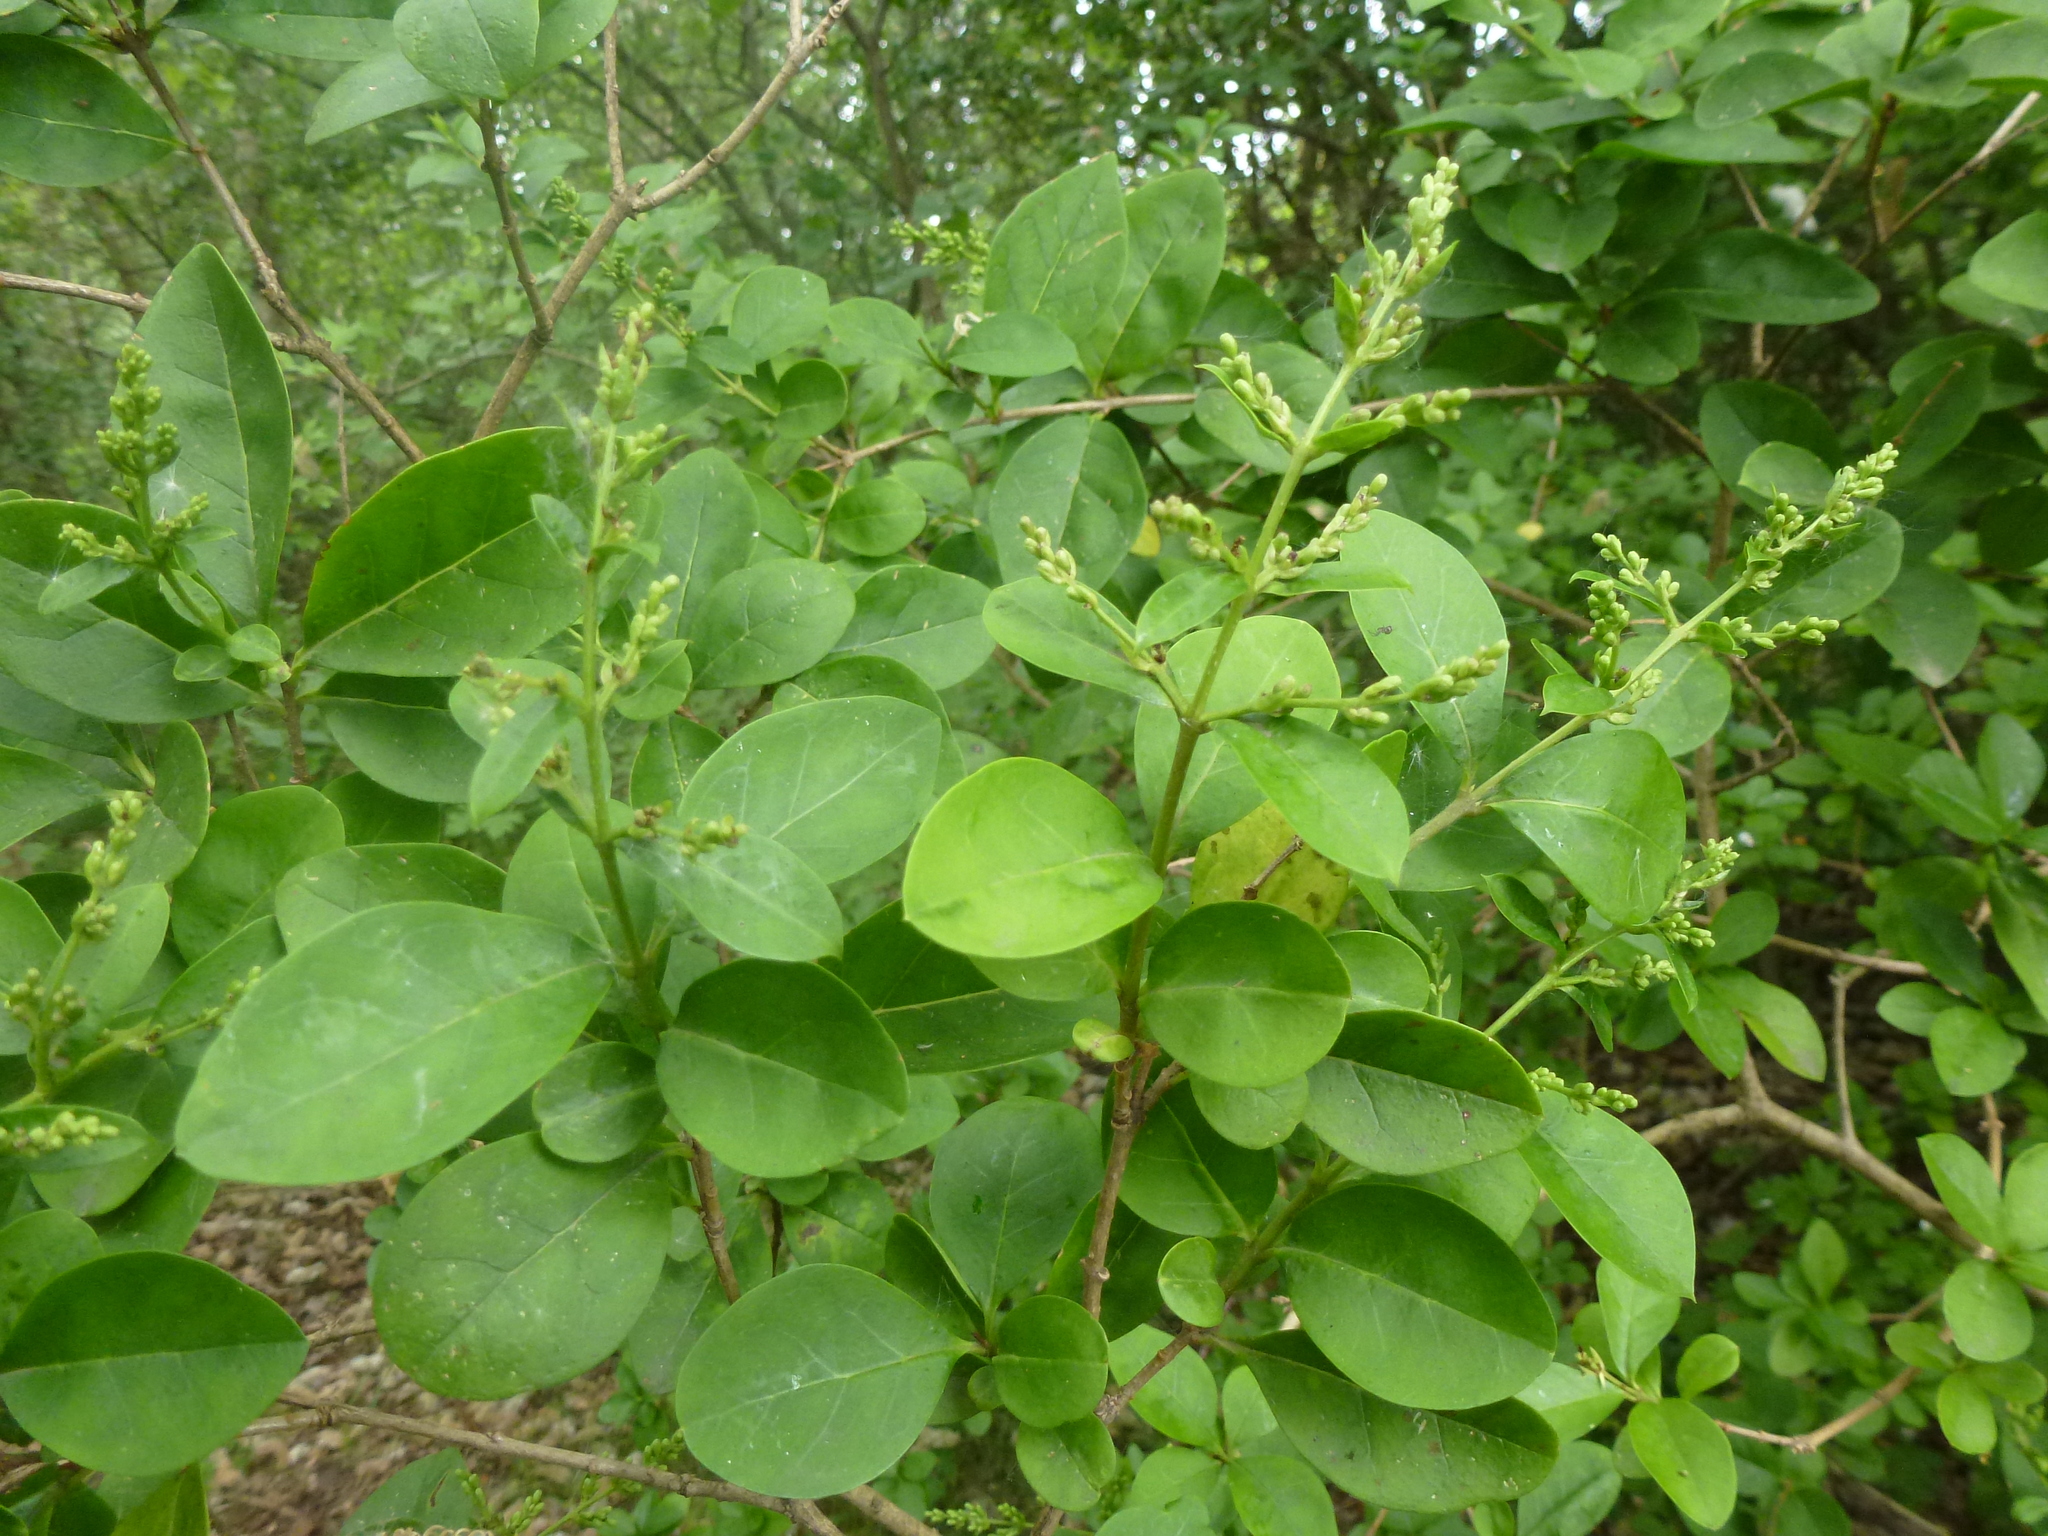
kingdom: Plantae
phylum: Tracheophyta
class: Magnoliopsida
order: Lamiales
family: Oleaceae
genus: Ligustrum
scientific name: Ligustrum ovalifolium
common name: California privet
